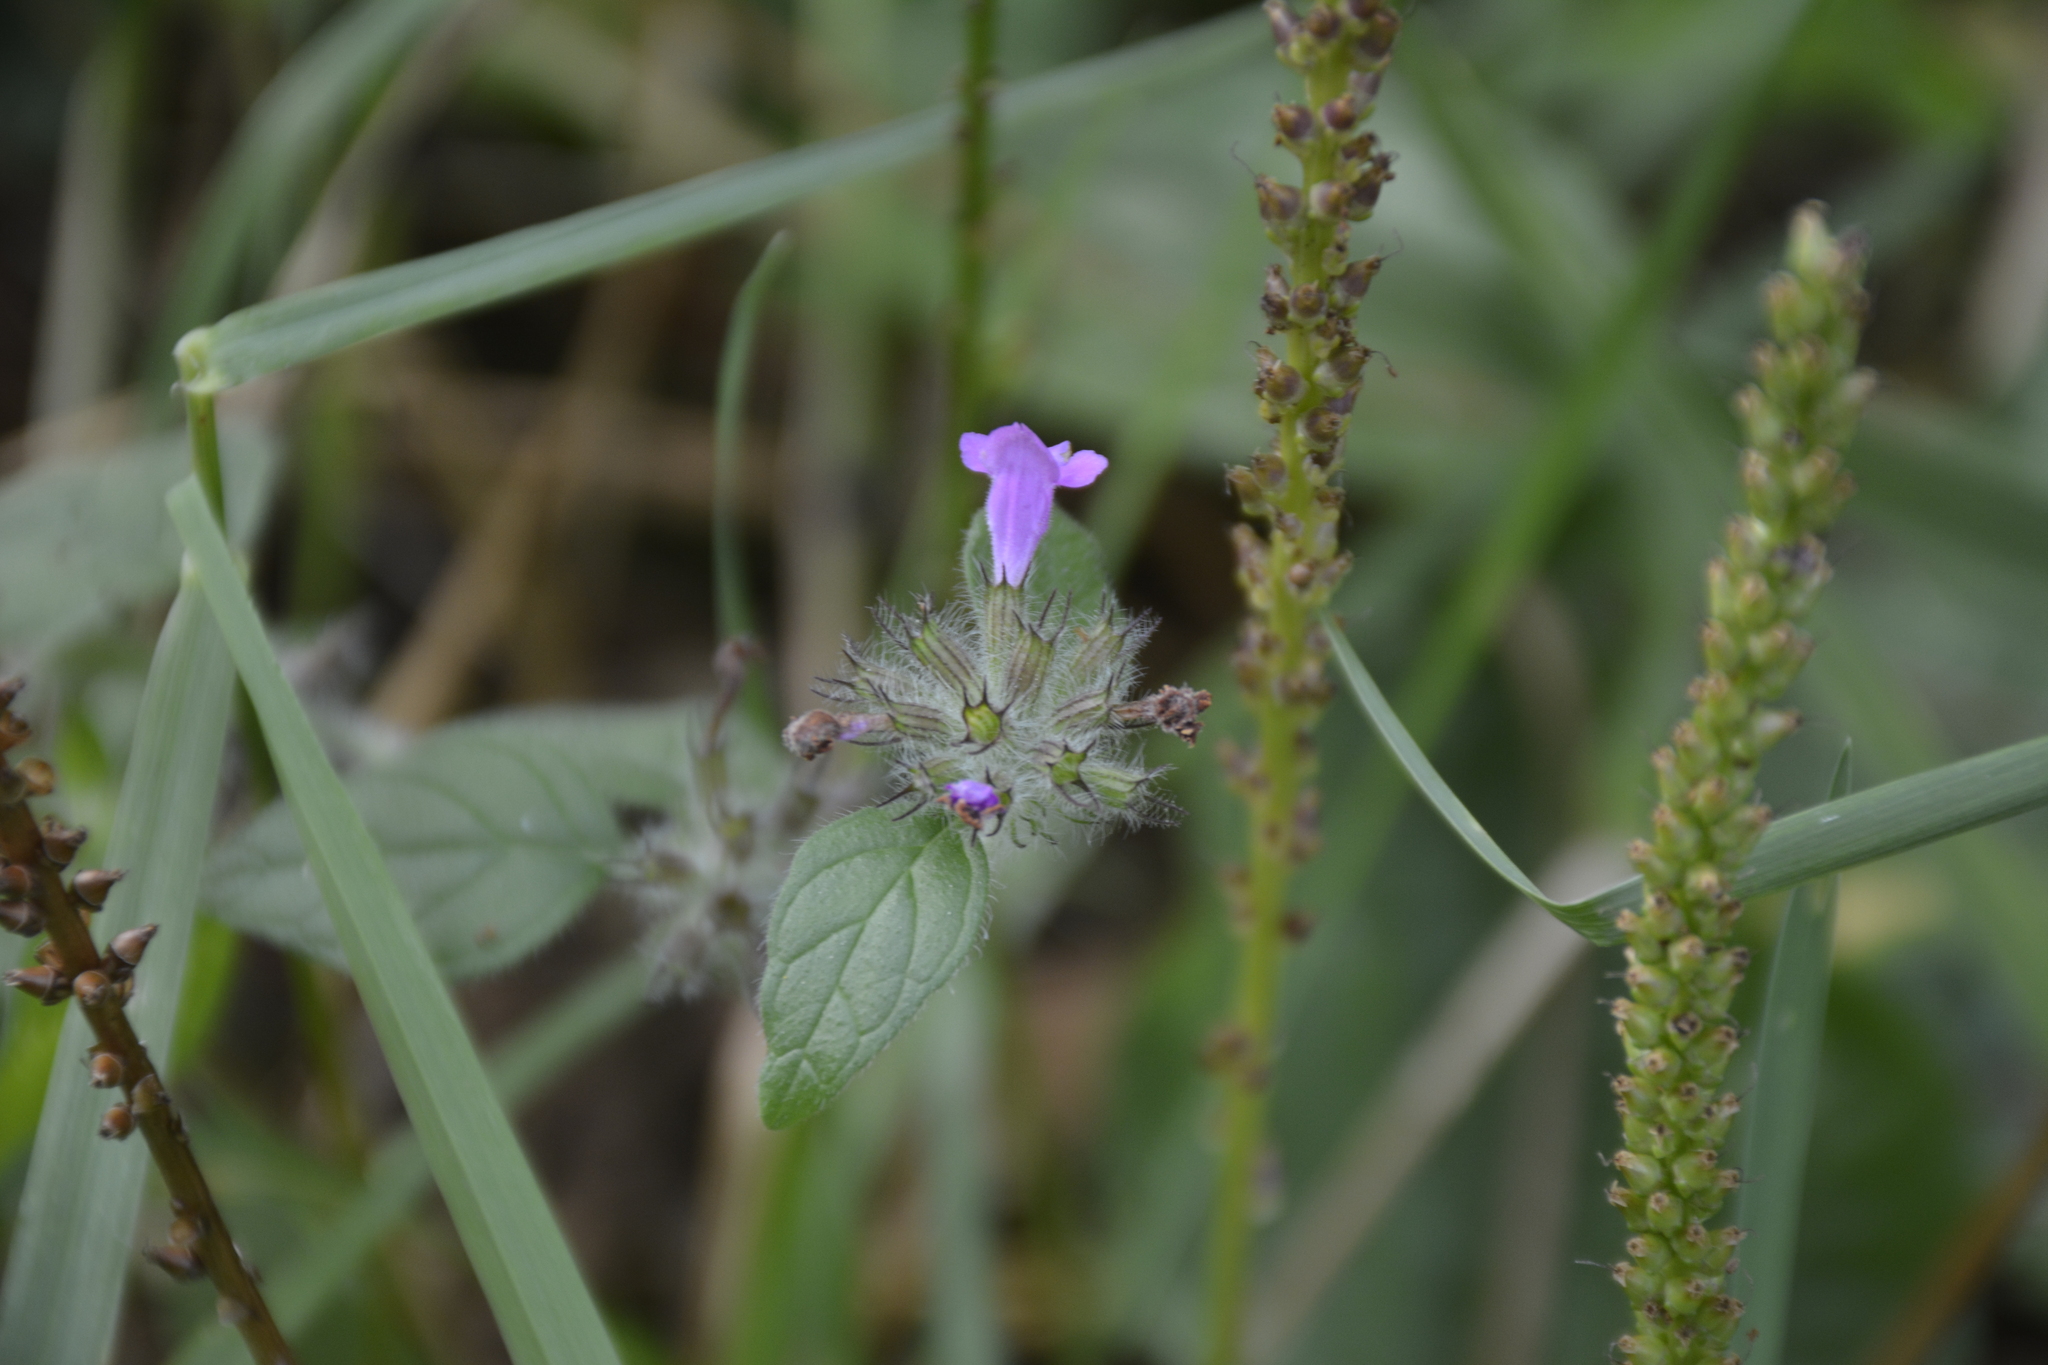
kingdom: Plantae
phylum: Tracheophyta
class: Magnoliopsida
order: Lamiales
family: Lamiaceae
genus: Clinopodium
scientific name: Clinopodium vulgare
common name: Wild basil
